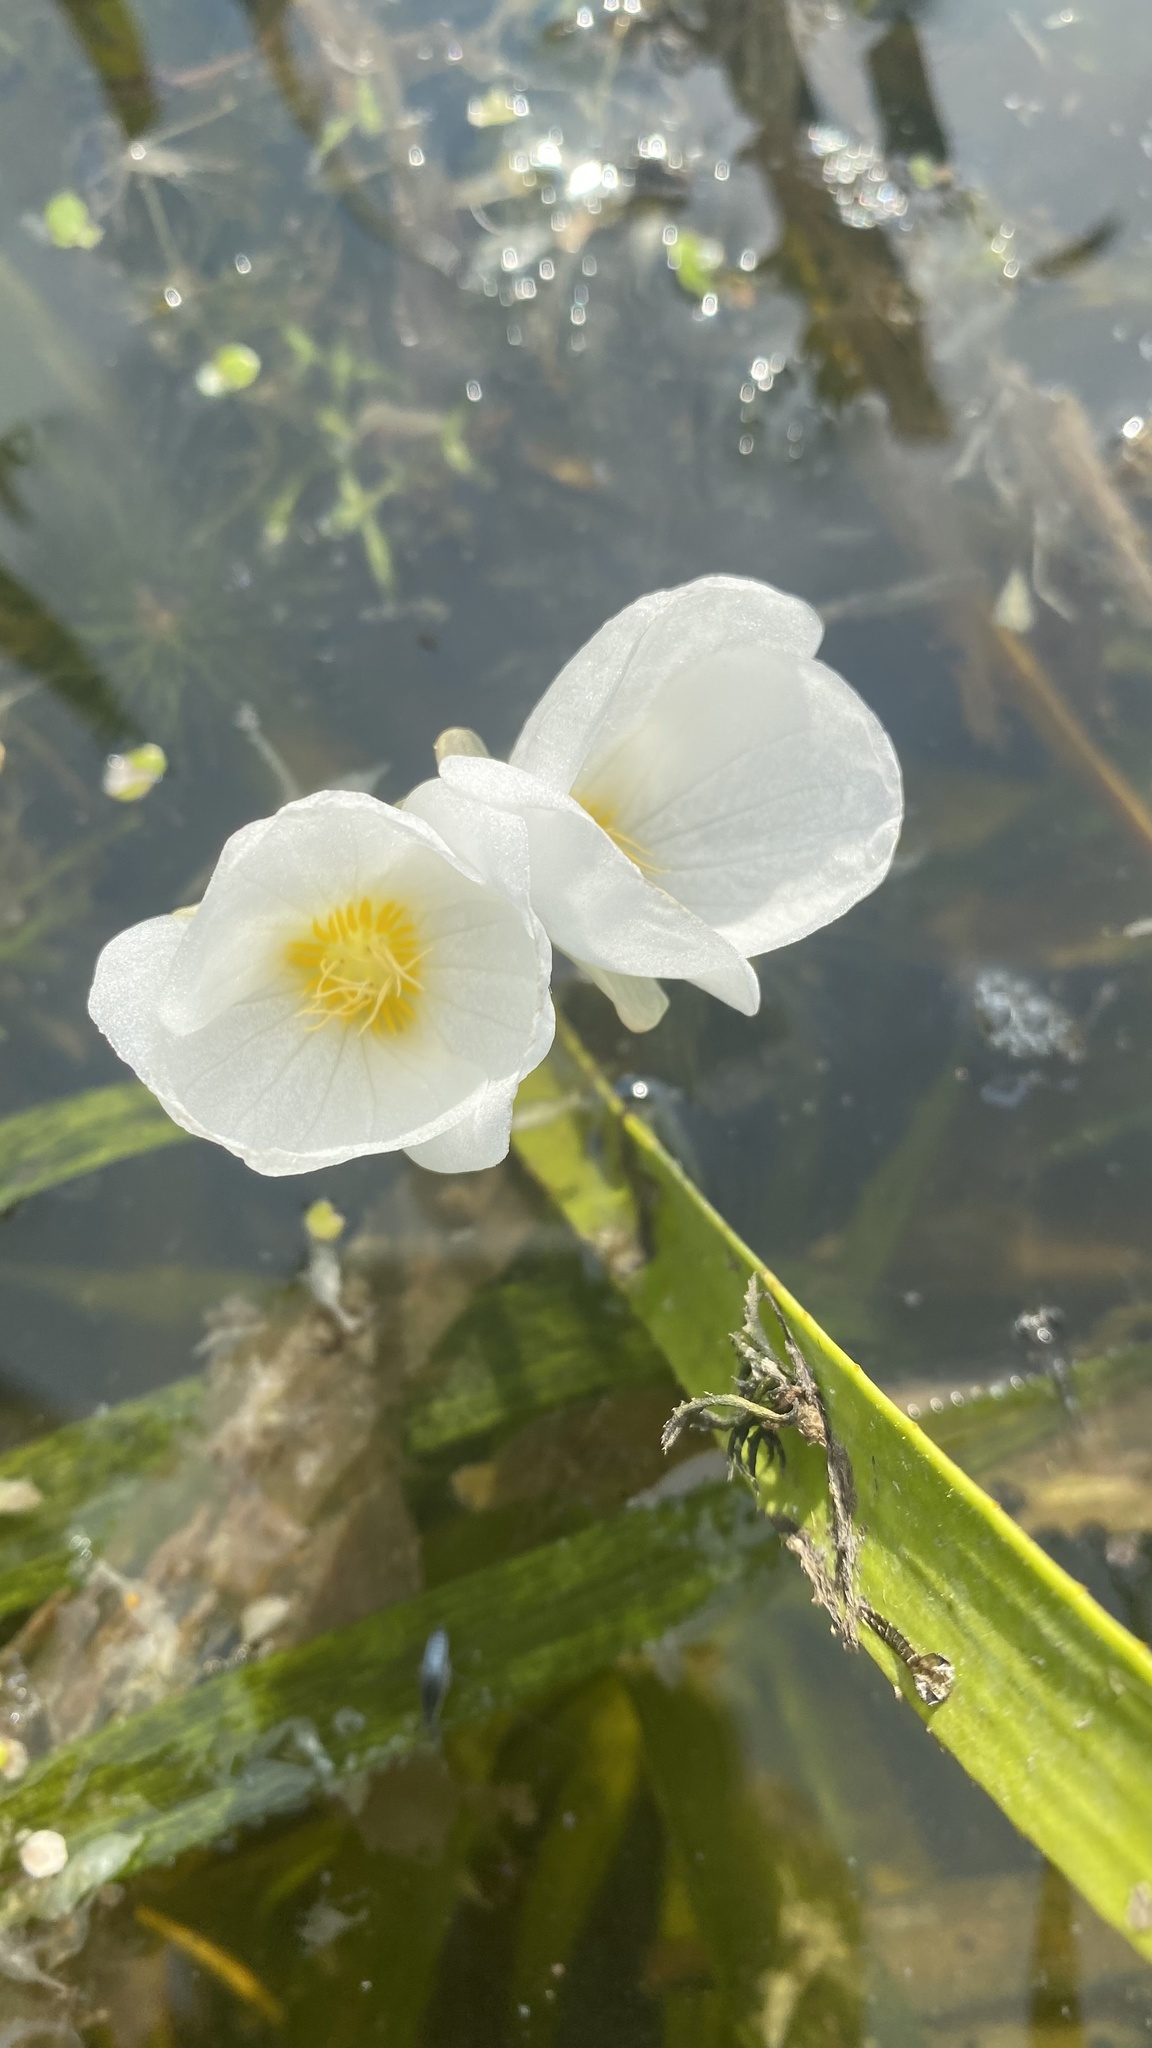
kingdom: Plantae
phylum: Tracheophyta
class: Liliopsida
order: Alismatales
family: Hydrocharitaceae
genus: Stratiotes
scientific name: Stratiotes aloides
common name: Water-soldier
